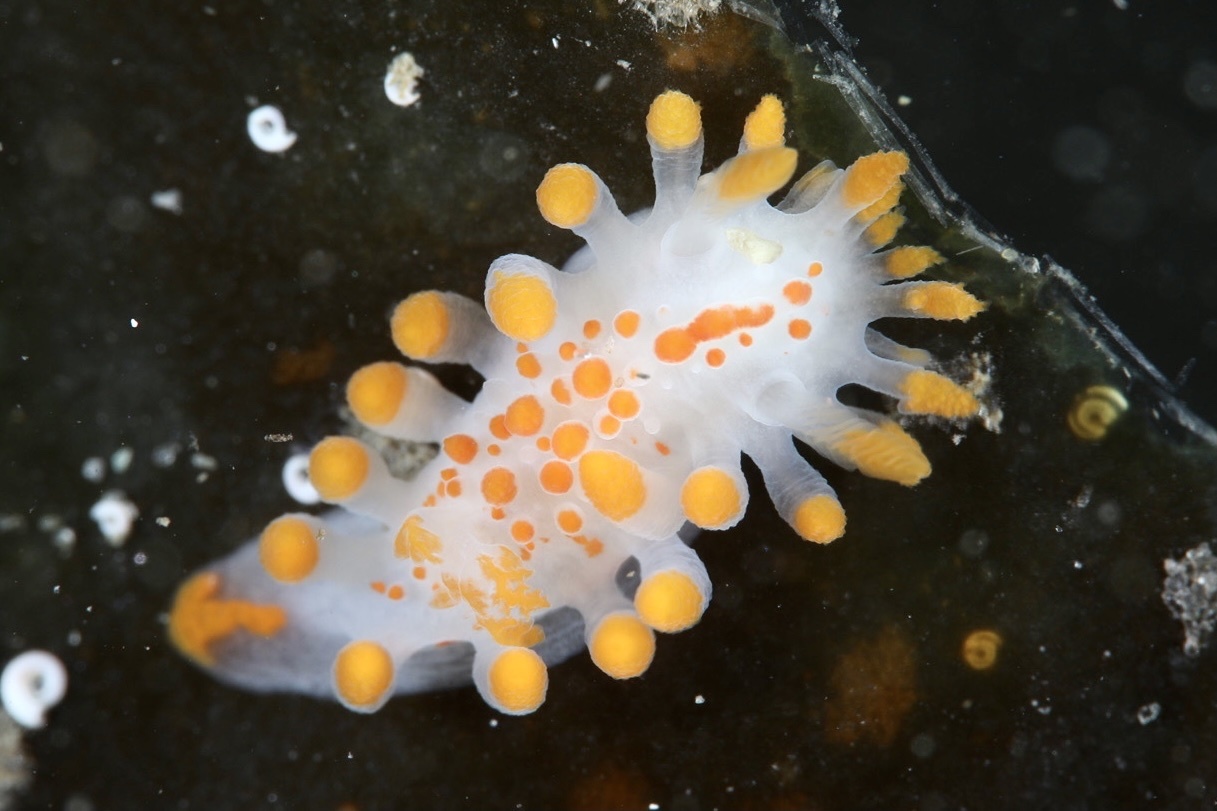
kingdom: Animalia
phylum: Mollusca
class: Gastropoda
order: Nudibranchia
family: Polyceridae
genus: Limacia
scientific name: Limacia clavigera
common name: Orange-clubbed sea slug
